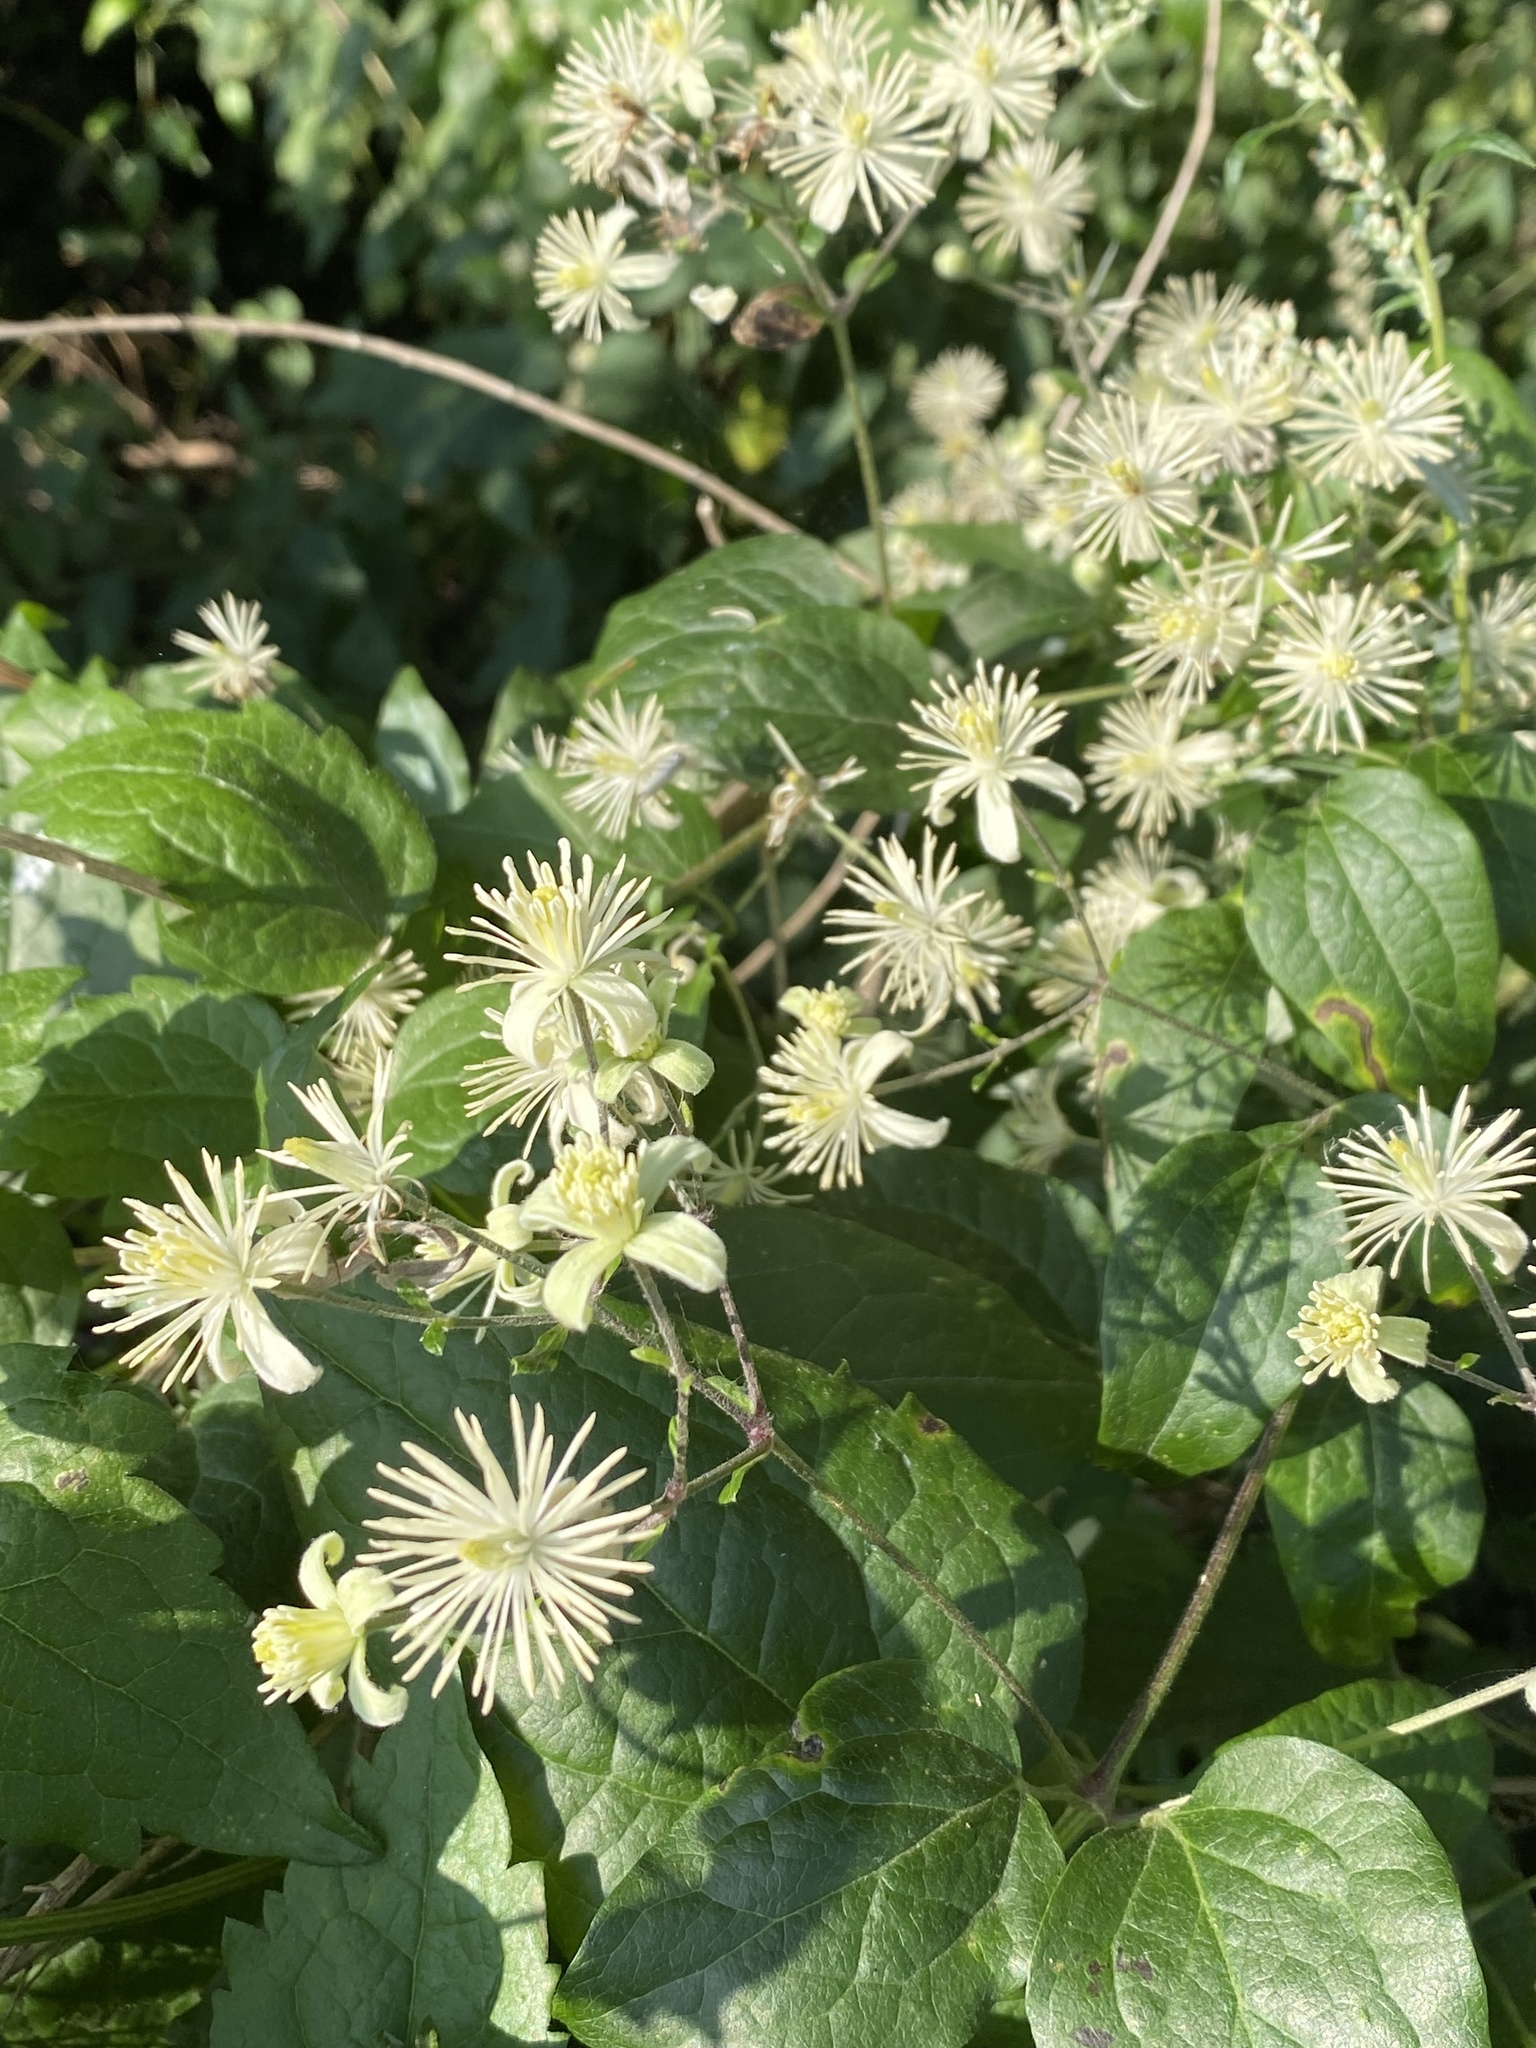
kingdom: Plantae
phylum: Tracheophyta
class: Magnoliopsida
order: Ranunculales
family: Ranunculaceae
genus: Clematis
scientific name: Clematis vitalba
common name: Evergreen clematis
